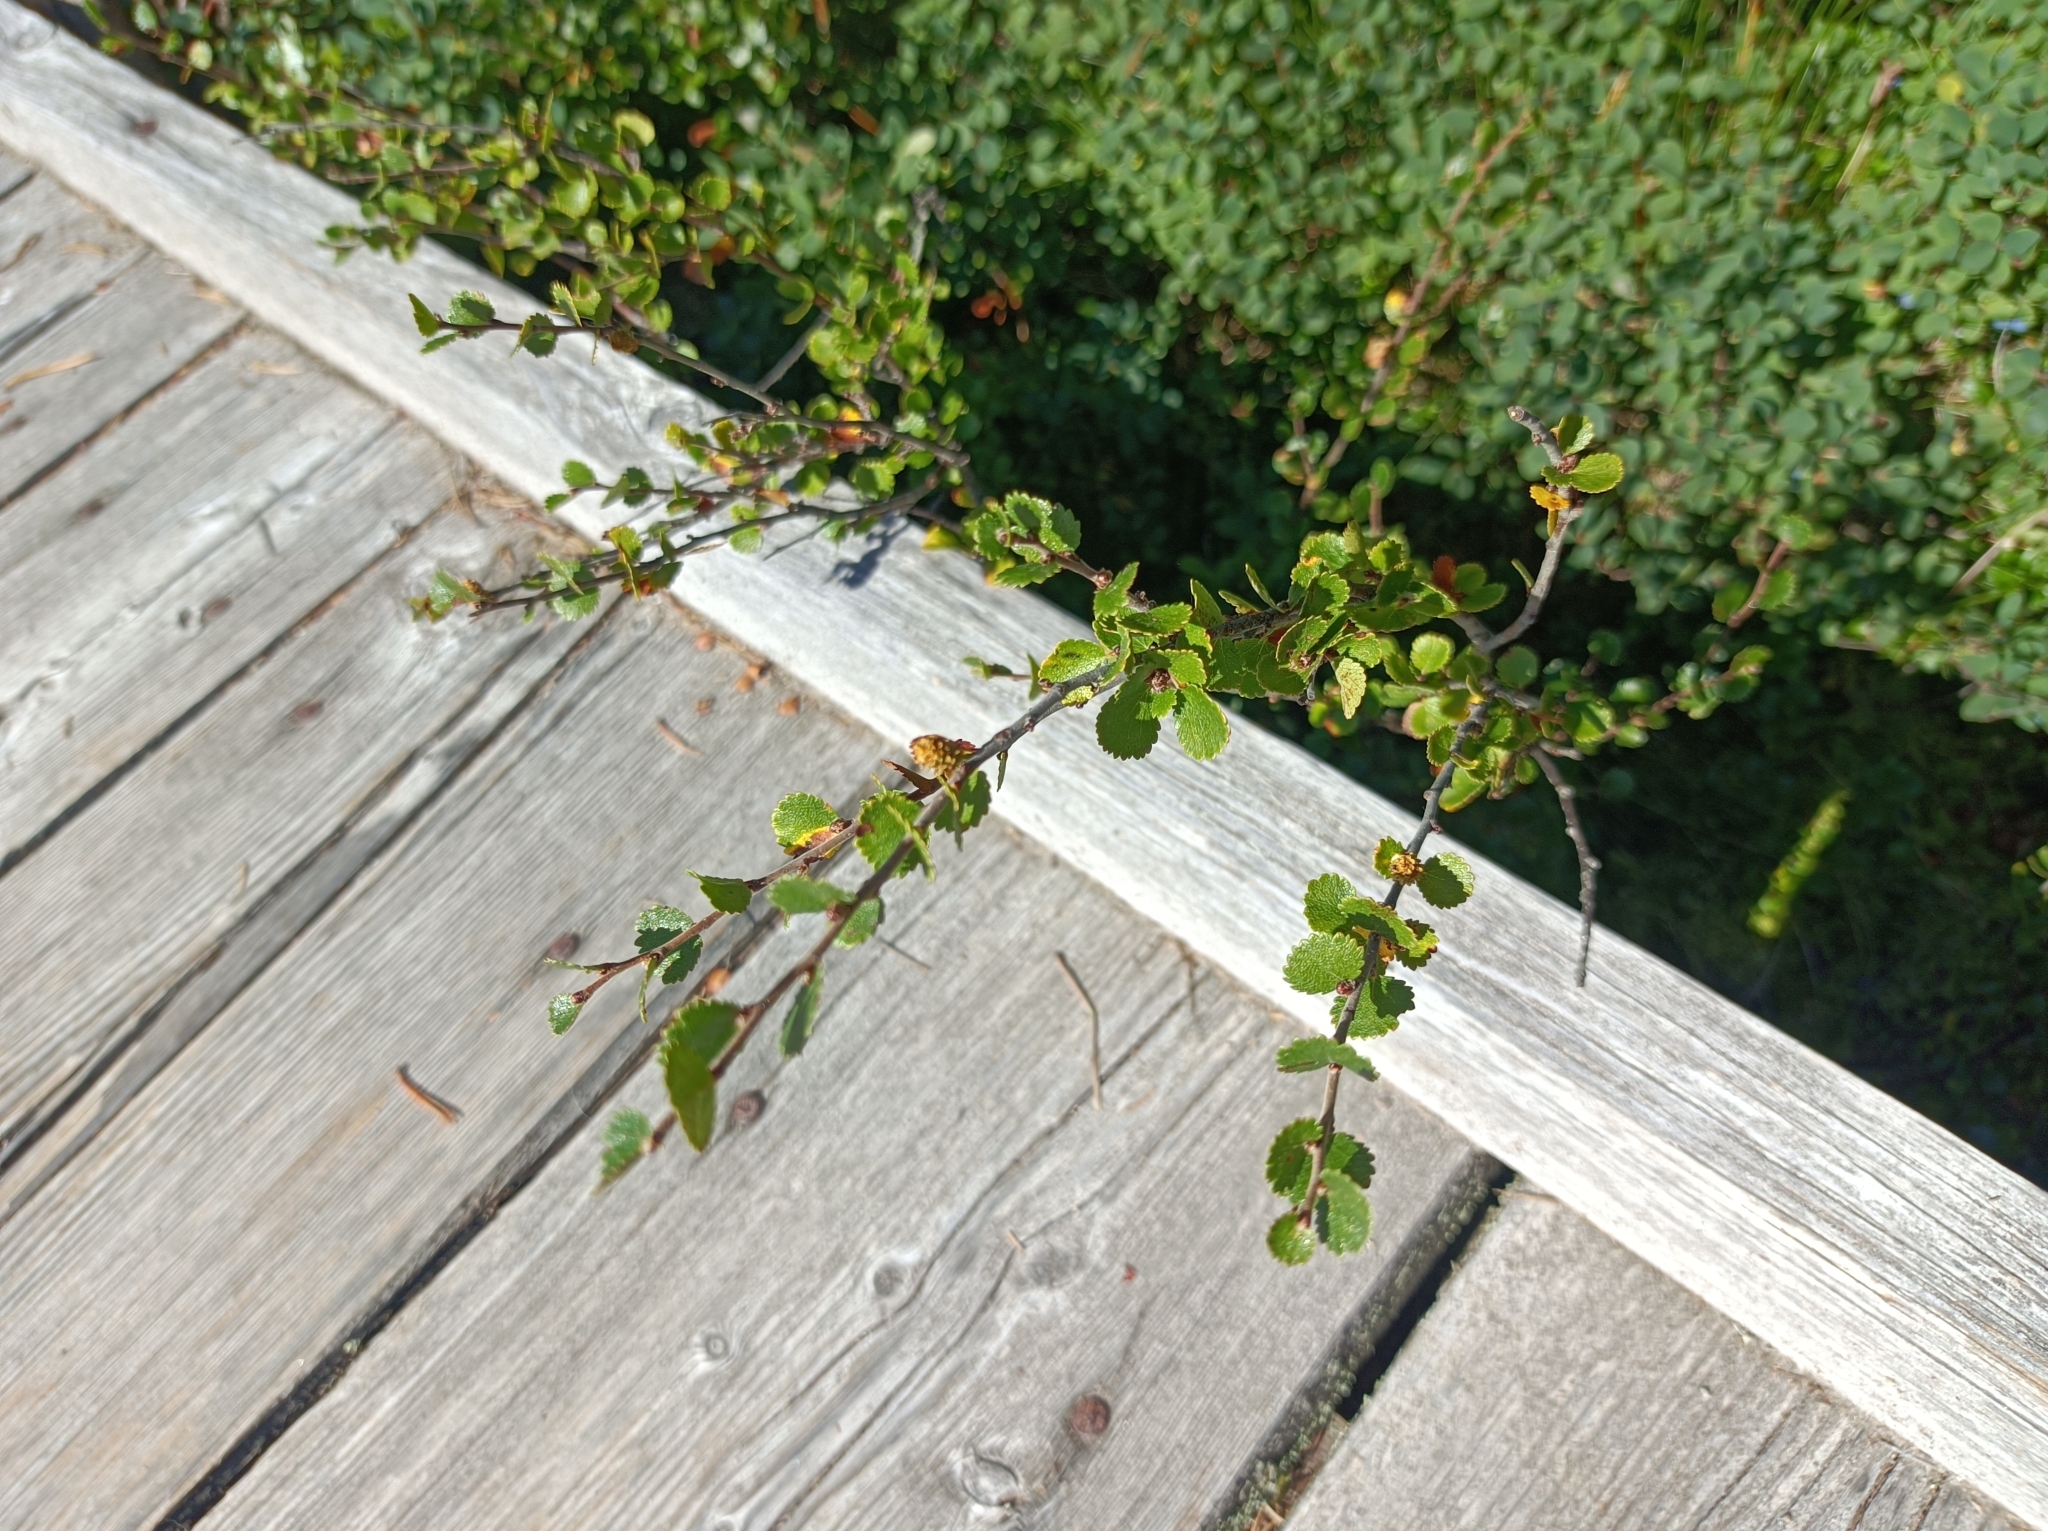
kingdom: Plantae
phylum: Tracheophyta
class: Magnoliopsida
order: Fagales
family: Betulaceae
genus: Betula
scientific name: Betula nana
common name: Arctic dwarf birch
